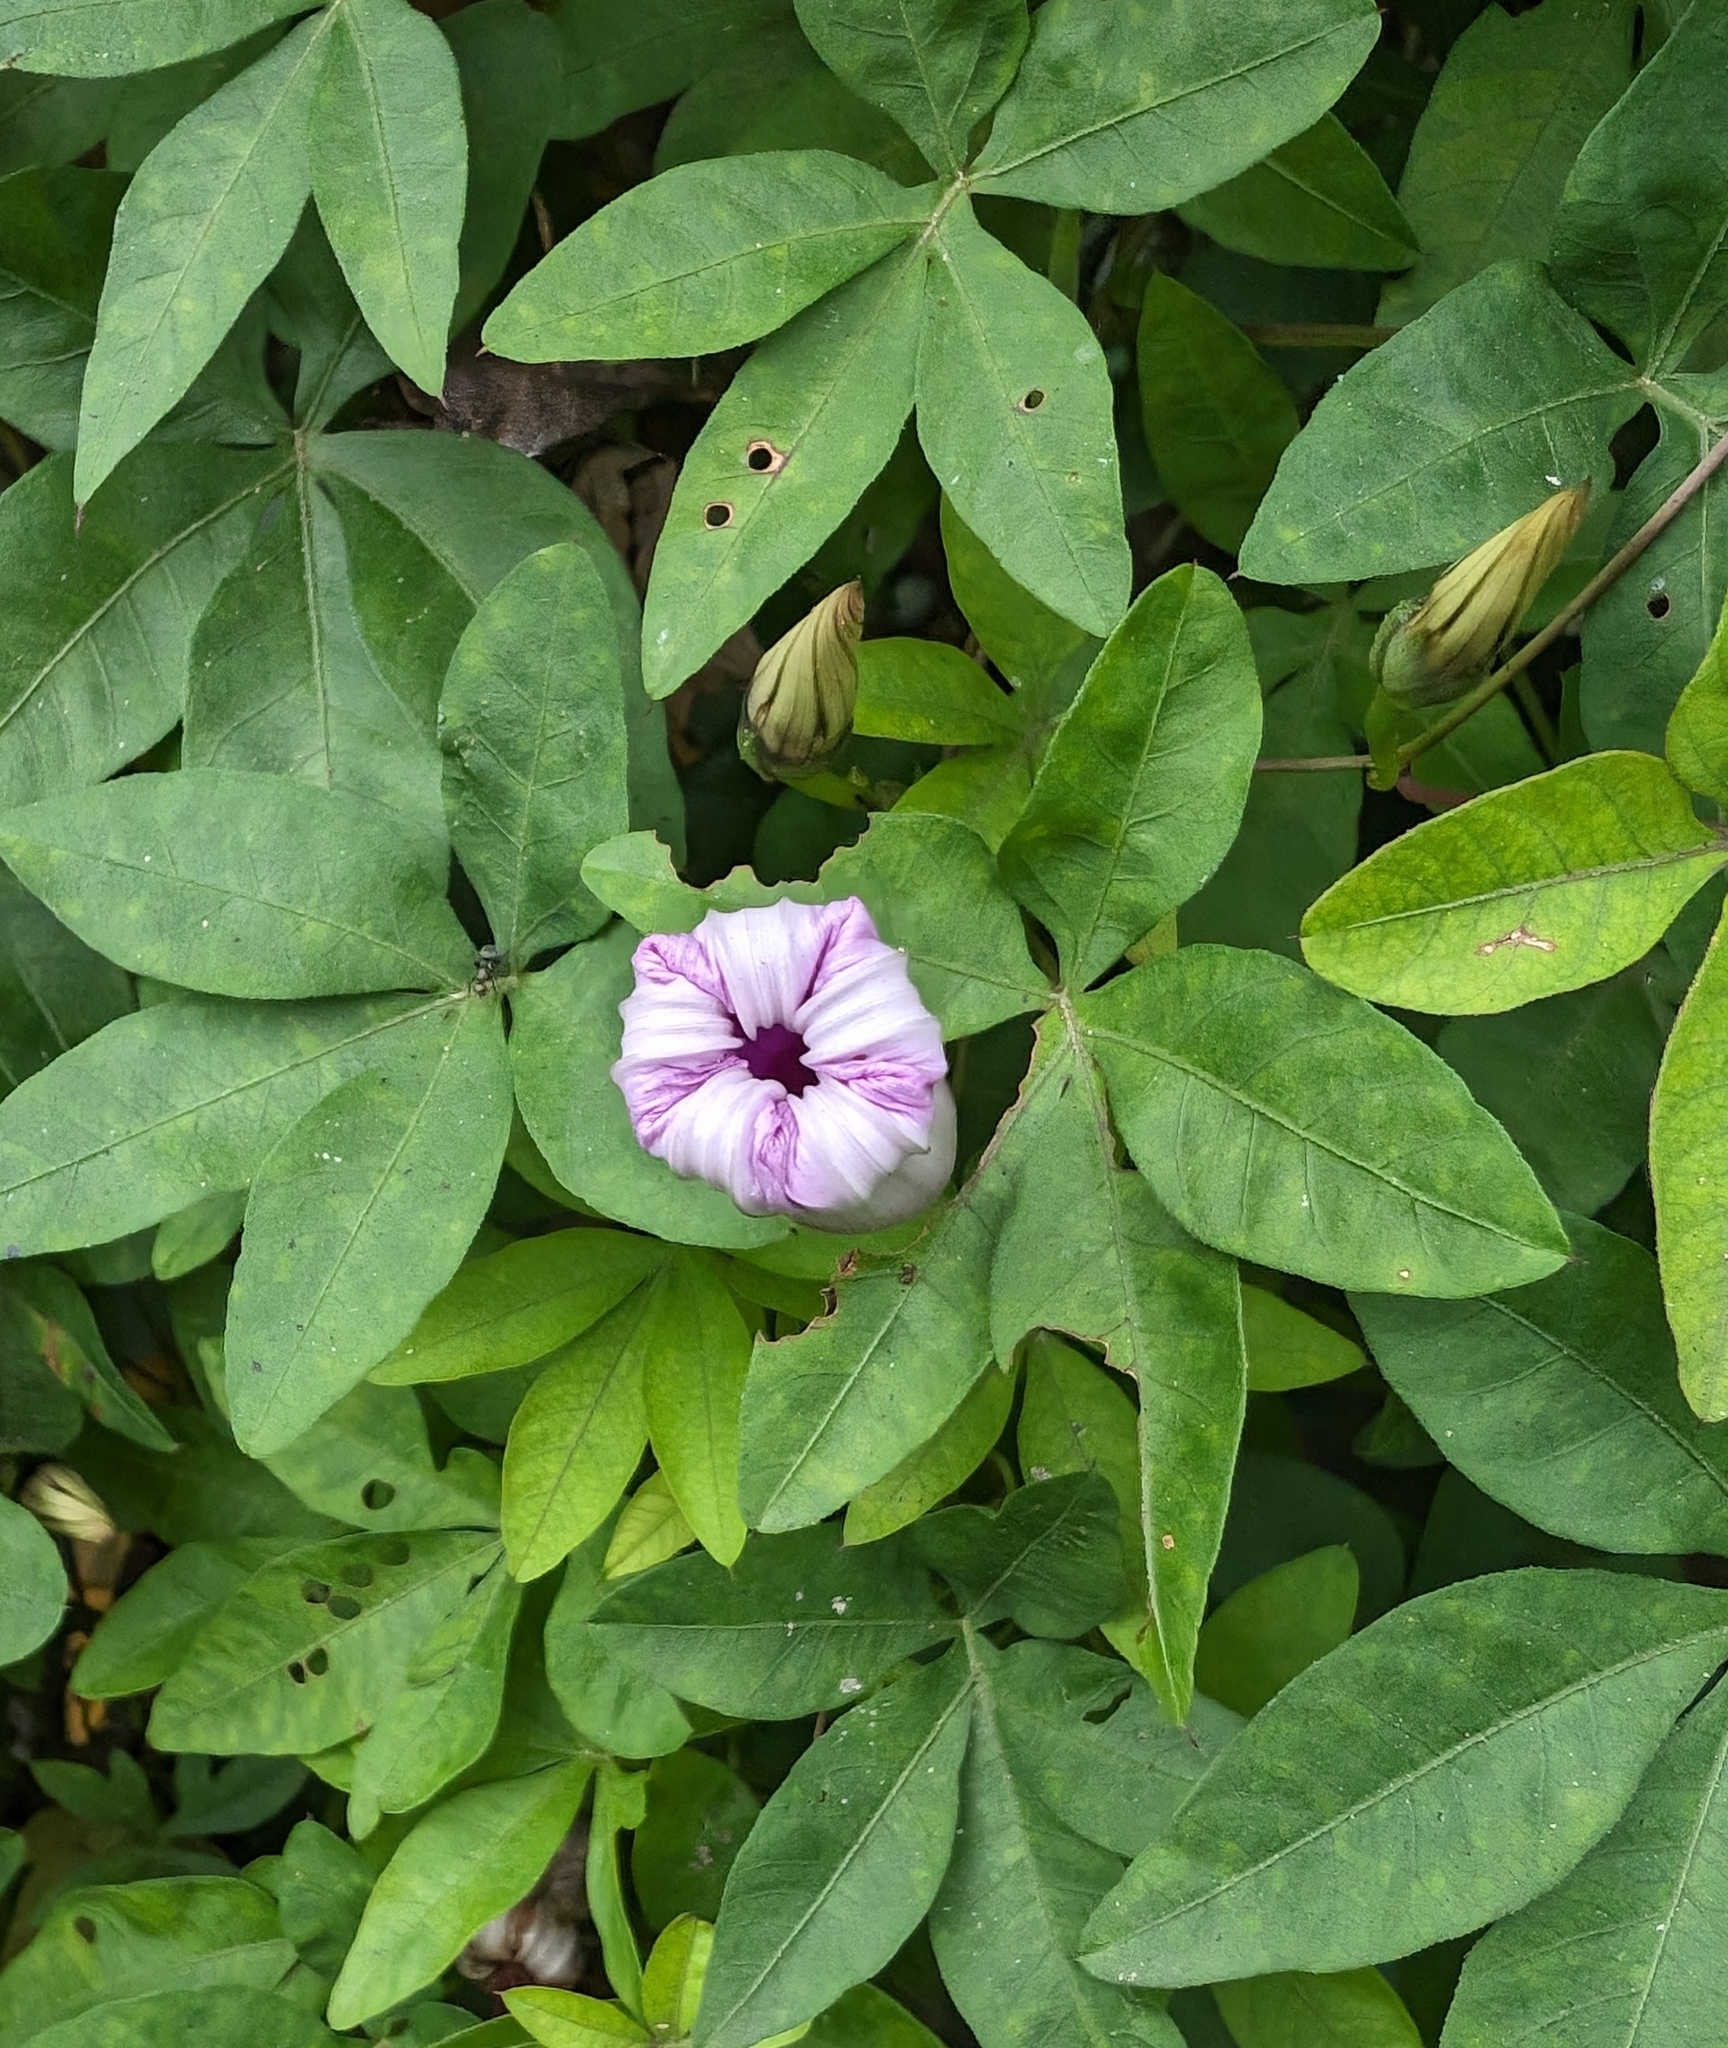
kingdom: Plantae
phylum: Tracheophyta
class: Magnoliopsida
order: Solanales
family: Convolvulaceae
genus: Ipomoea
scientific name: Ipomoea cairica
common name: Mile a minute vine
